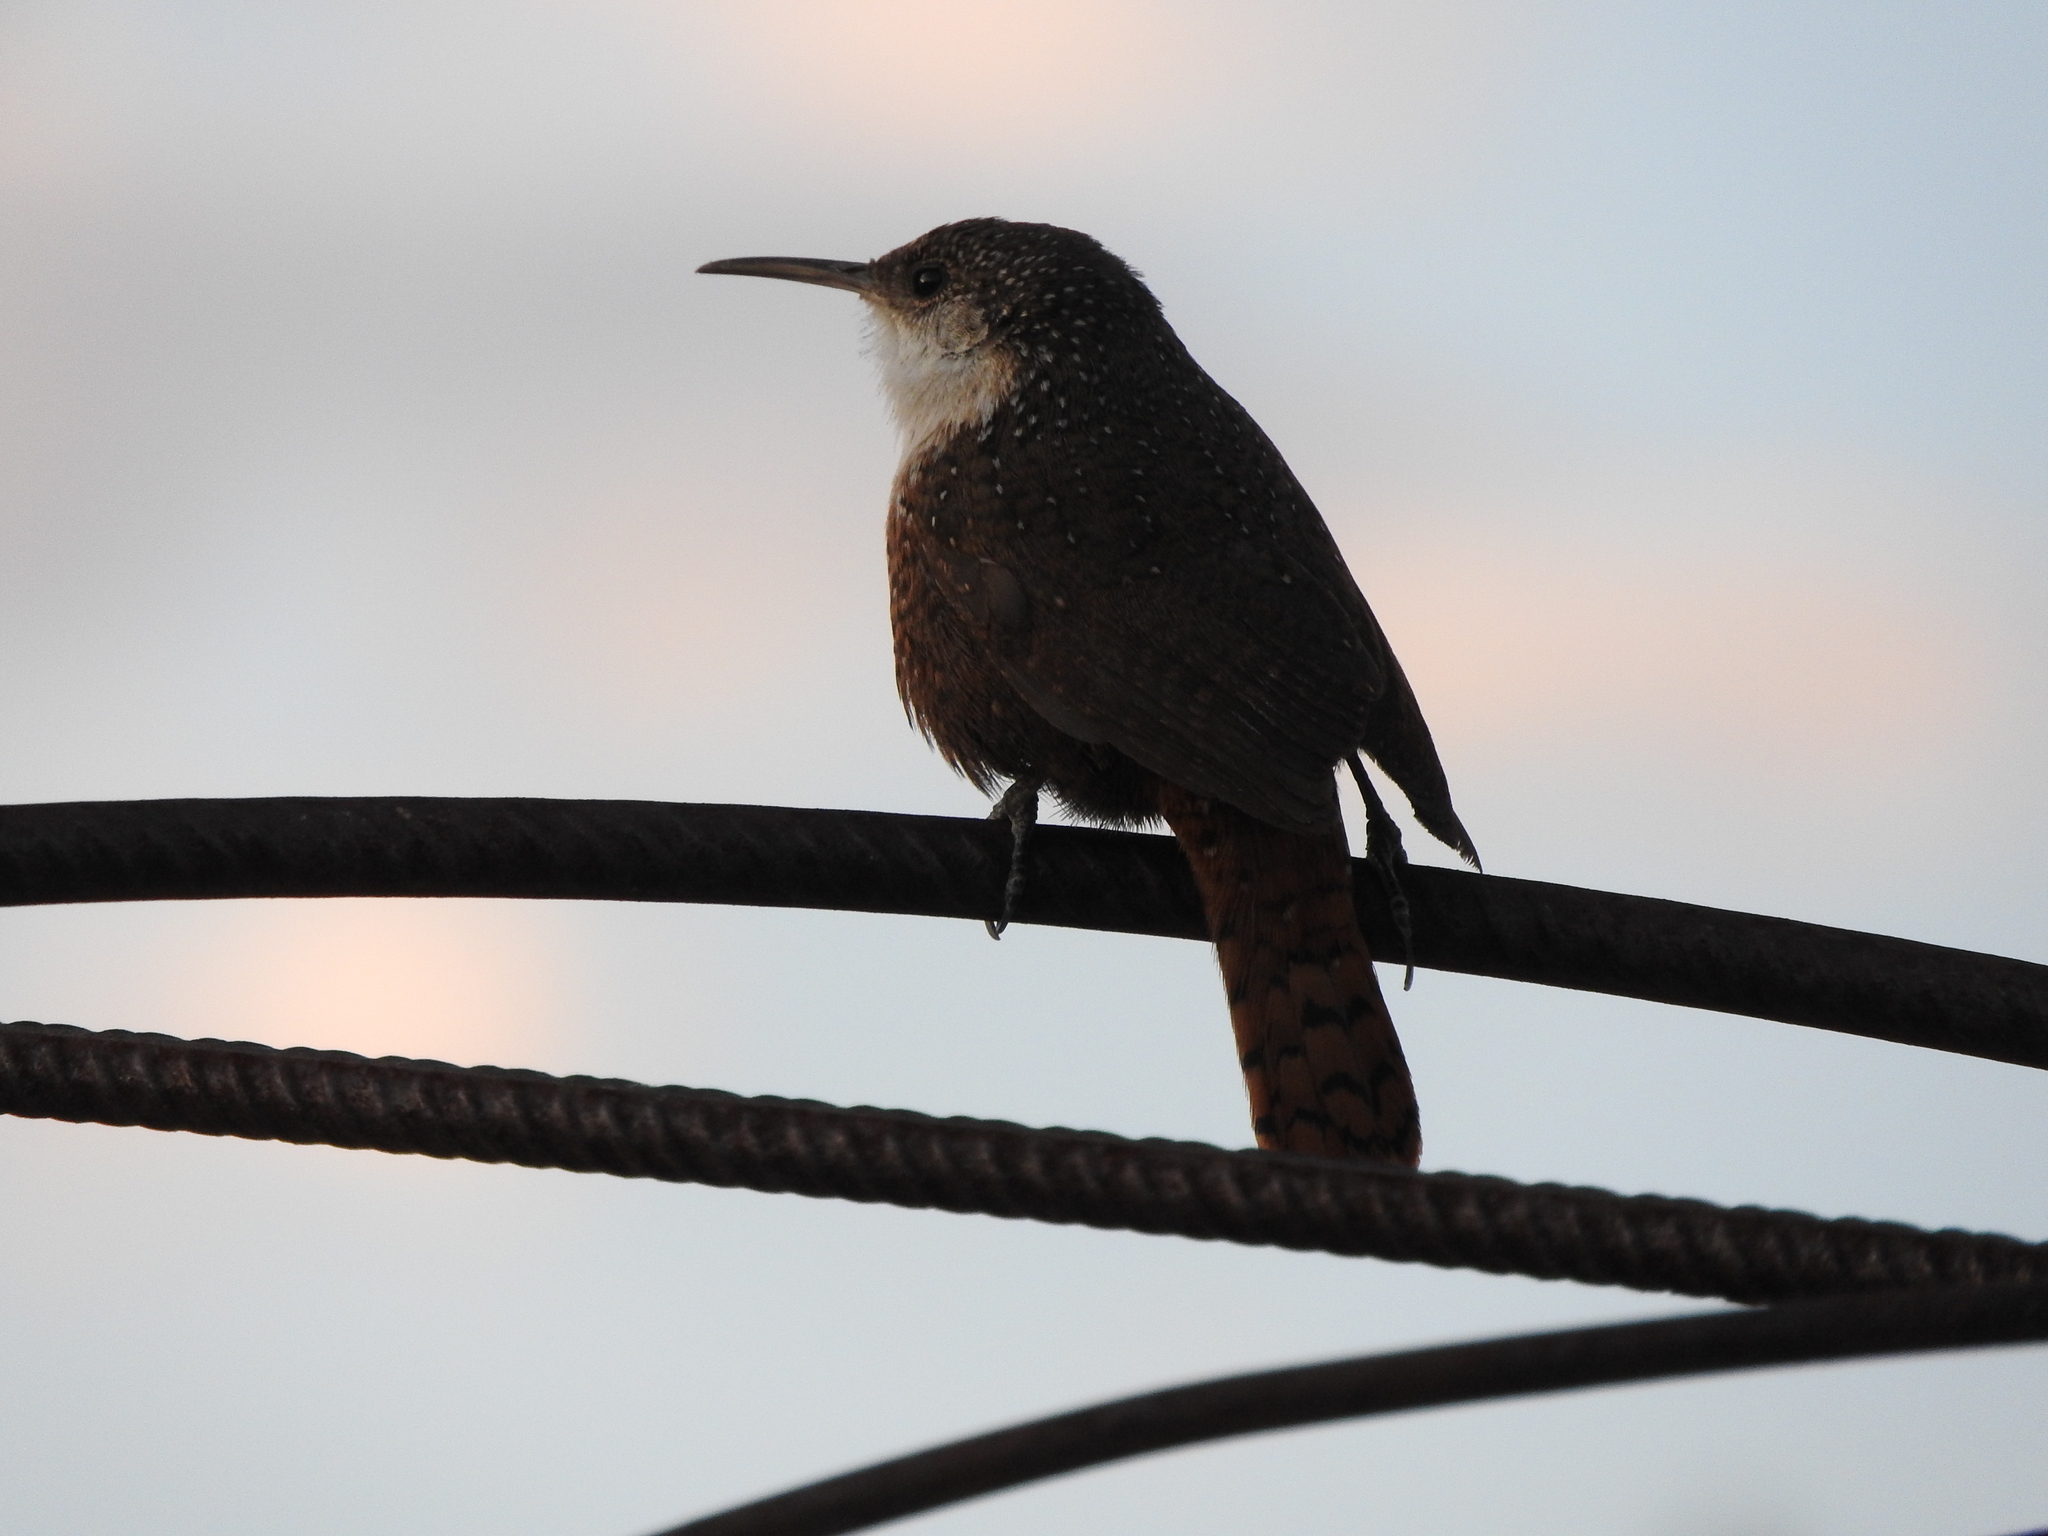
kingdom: Animalia
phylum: Chordata
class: Aves
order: Passeriformes
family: Troglodytidae
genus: Catherpes
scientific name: Catherpes mexicanus
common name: Canyon wren
